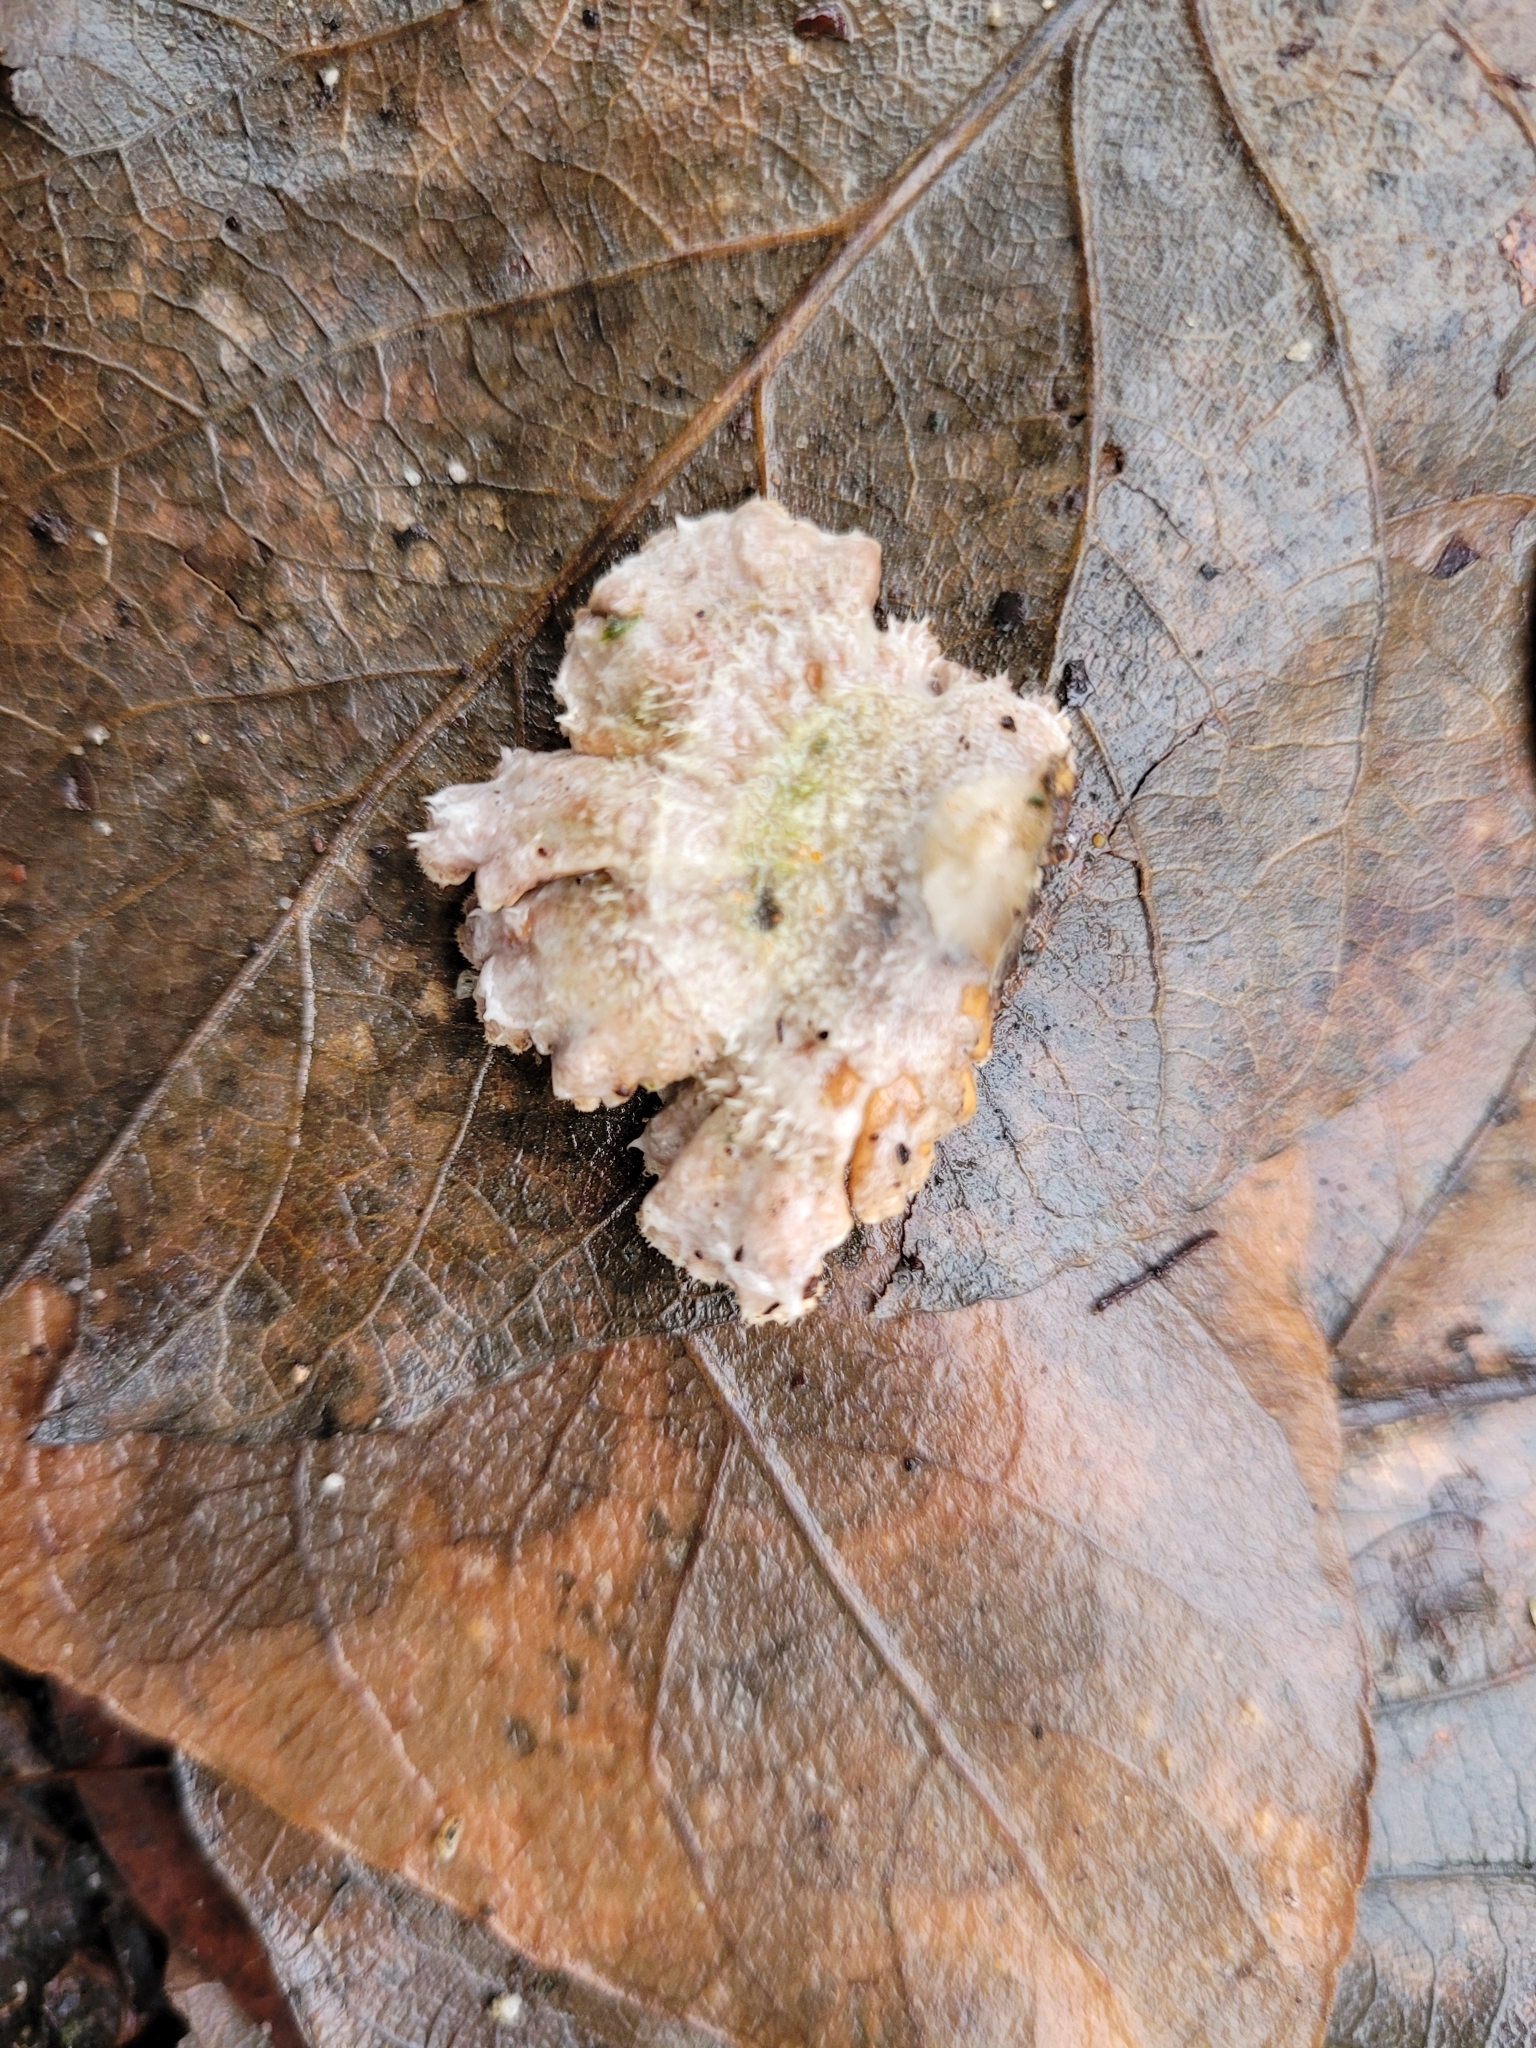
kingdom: Fungi
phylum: Basidiomycota
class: Agaricomycetes
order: Agaricales
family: Schizophyllaceae
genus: Schizophyllum
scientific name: Schizophyllum commune
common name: Common porecrust
